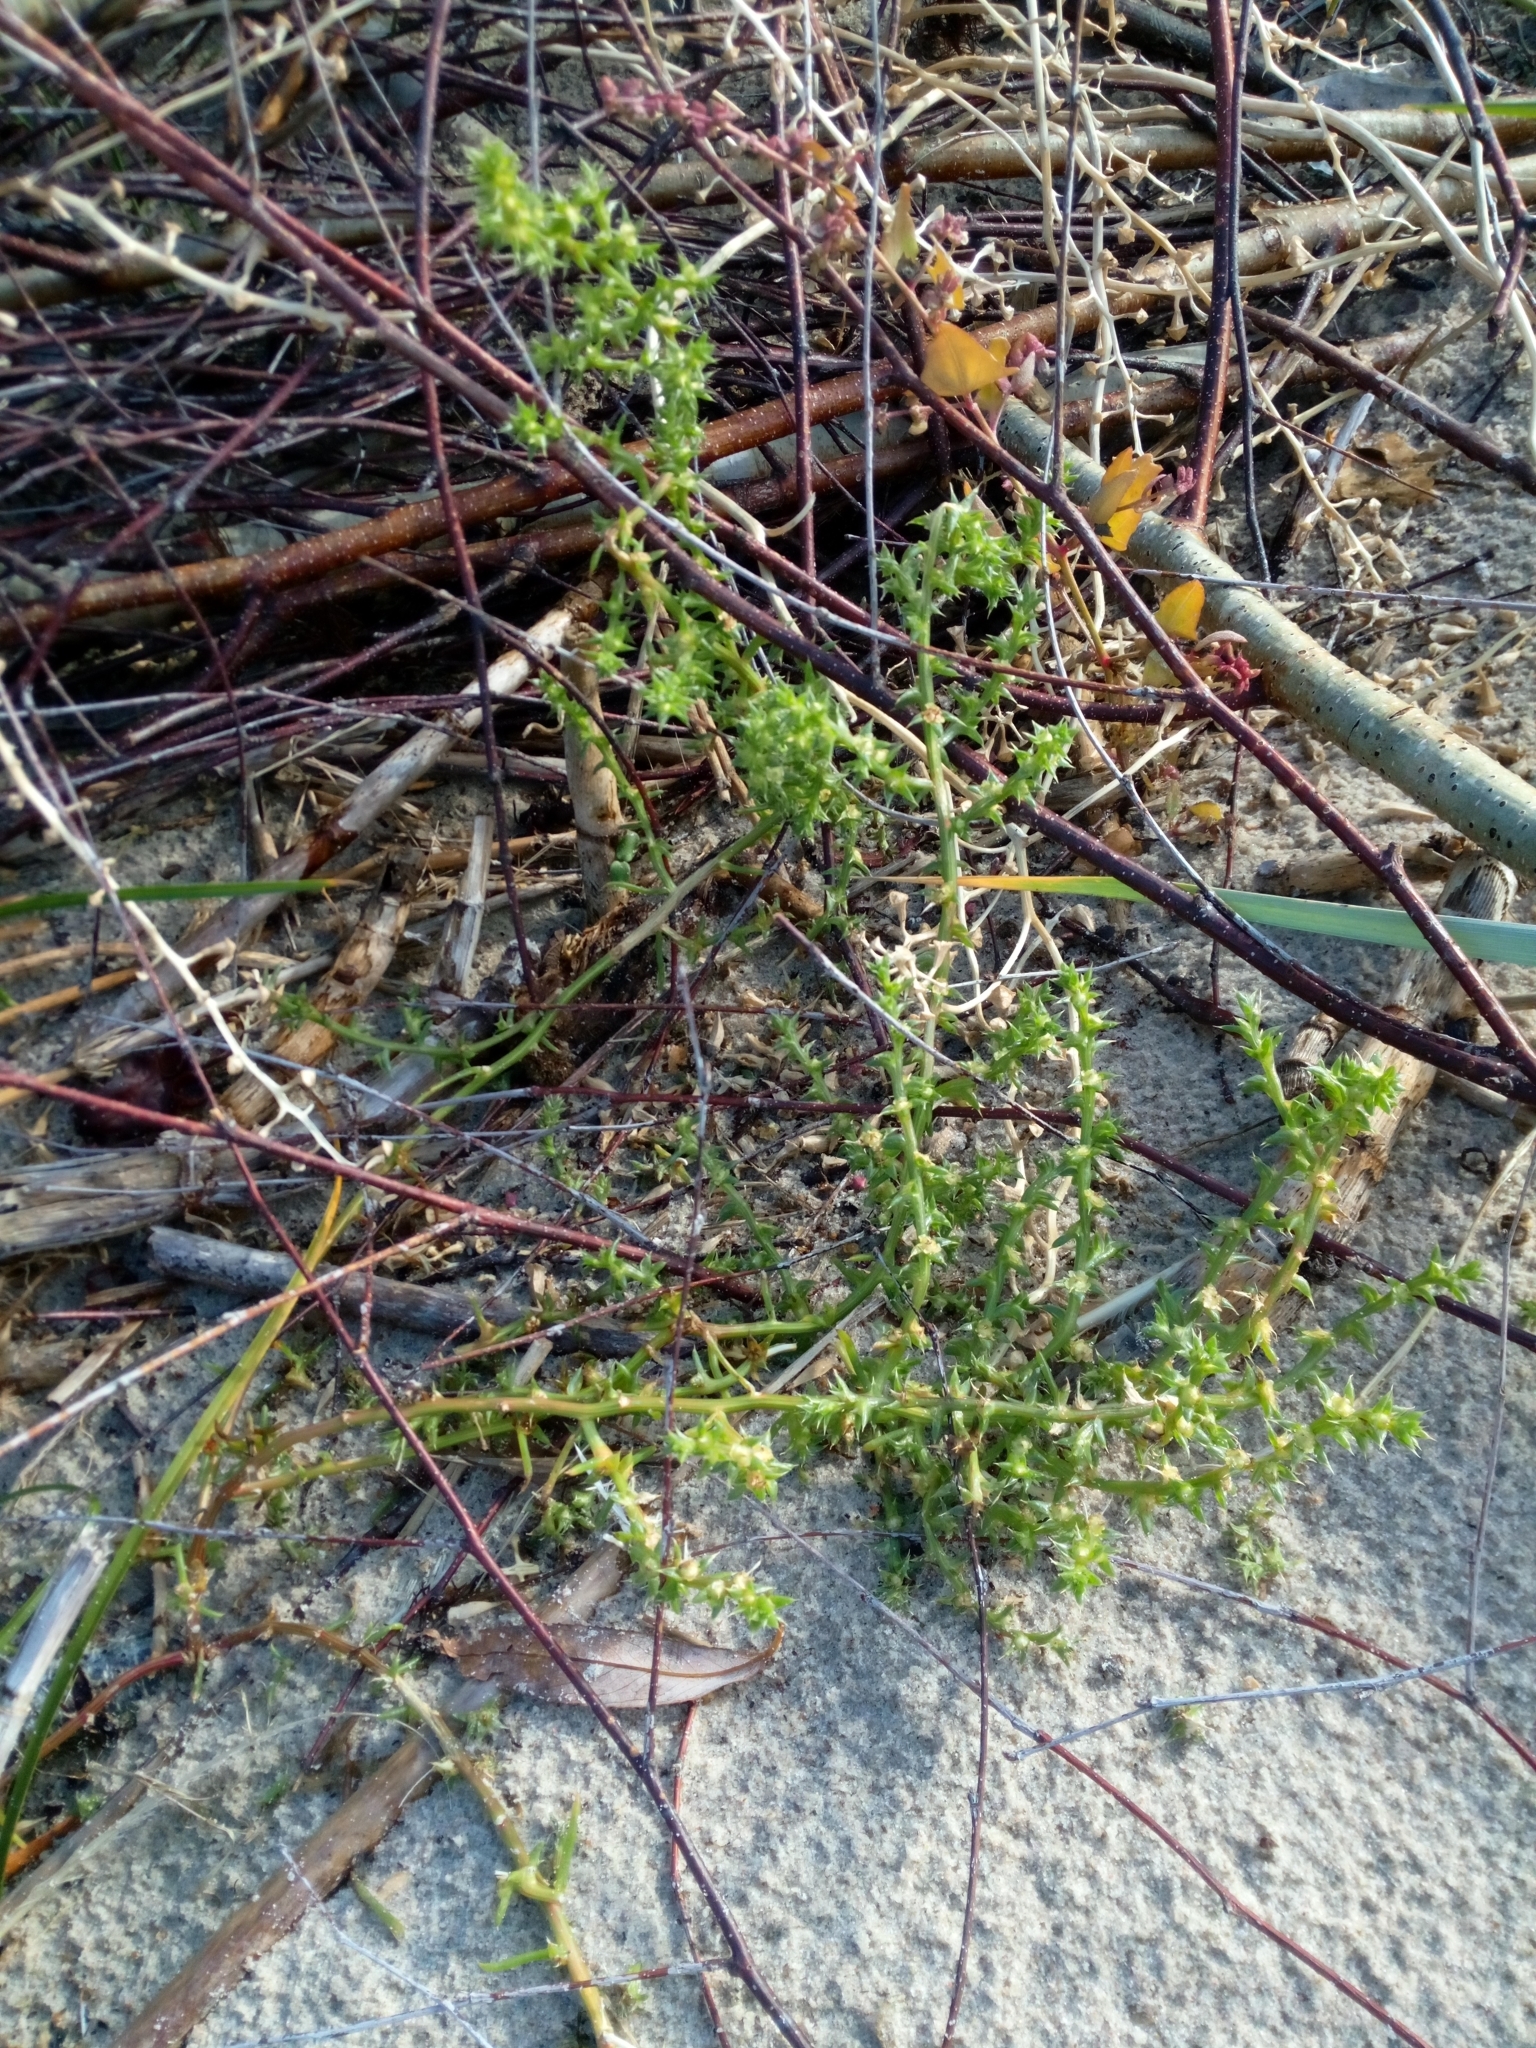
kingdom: Plantae
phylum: Tracheophyta
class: Magnoliopsida
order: Caryophyllales
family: Amaranthaceae
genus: Salsola
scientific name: Salsola kali
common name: Saltwort
